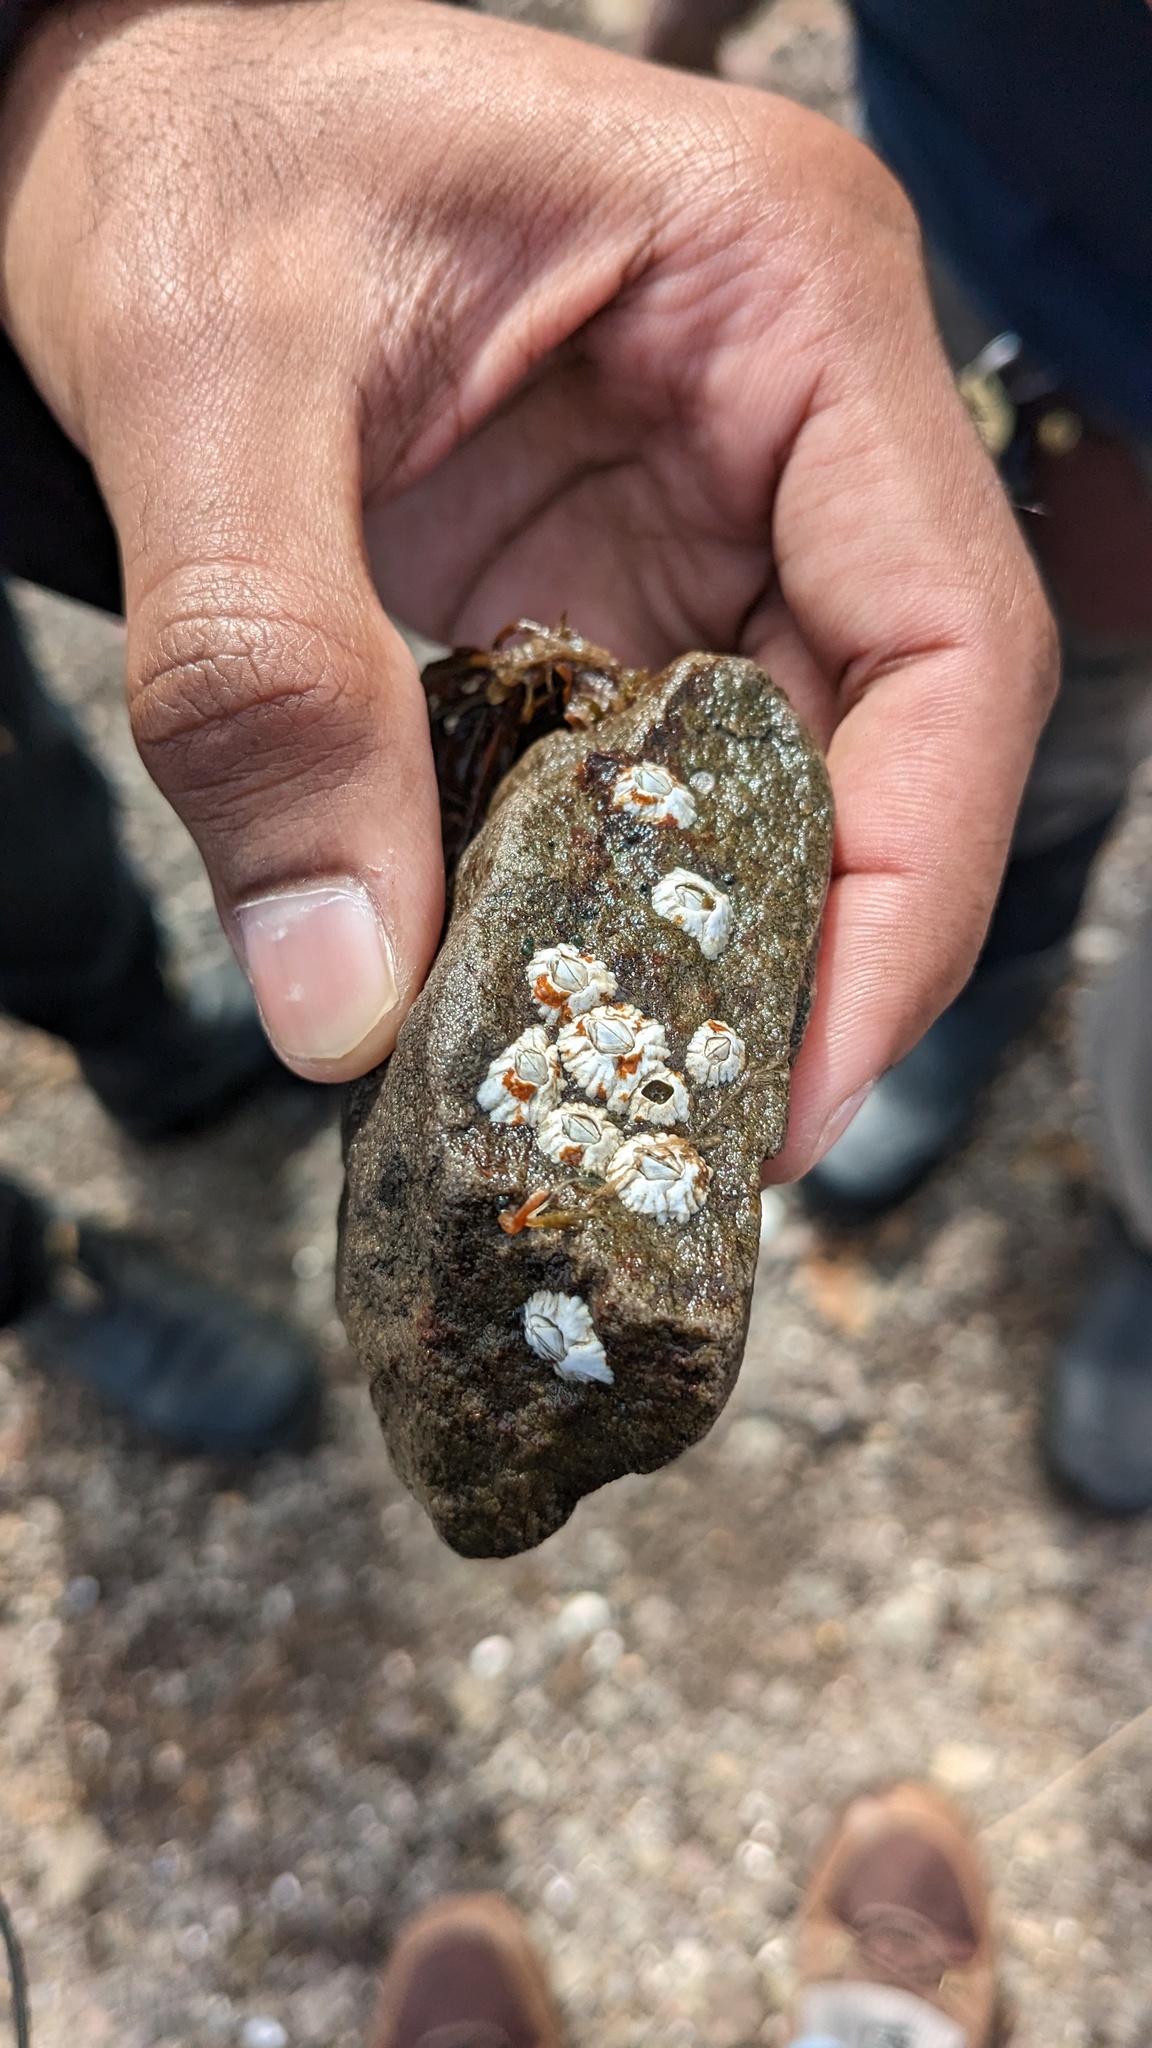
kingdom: Animalia
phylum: Arthropoda
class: Maxillopoda
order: Sessilia
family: Archaeobalanidae
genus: Semibalanus
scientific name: Semibalanus balanoides
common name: Acorn barnacle
